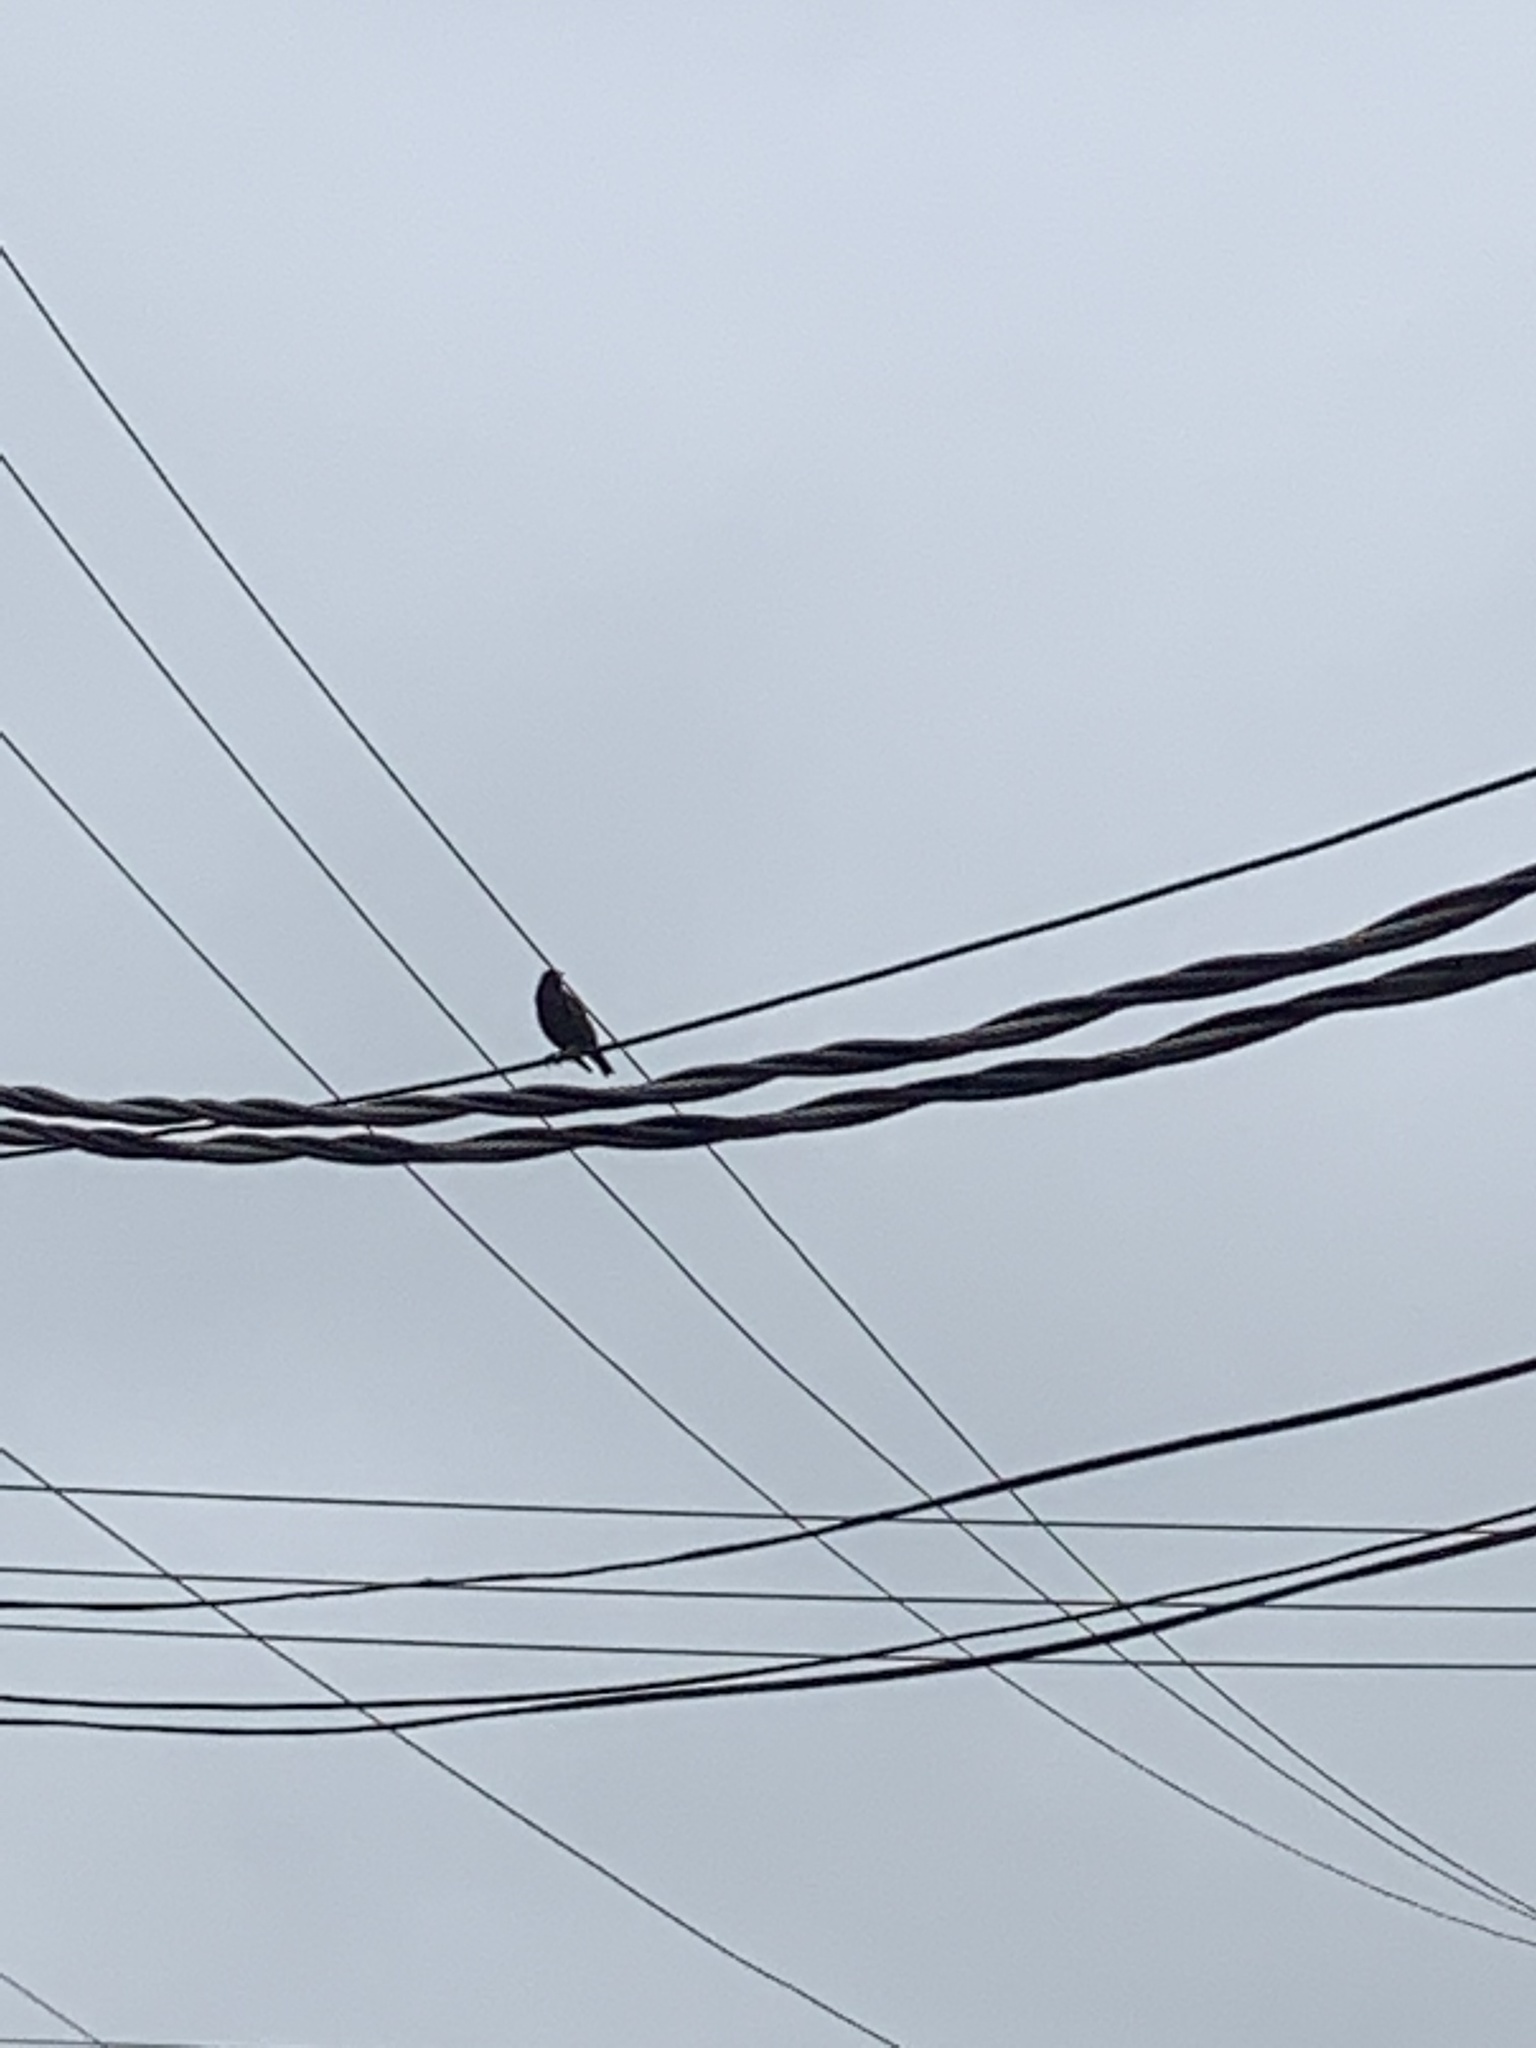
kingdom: Animalia
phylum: Chordata
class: Aves
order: Passeriformes
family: Sturnidae
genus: Sturnus
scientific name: Sturnus vulgaris
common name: Common starling
